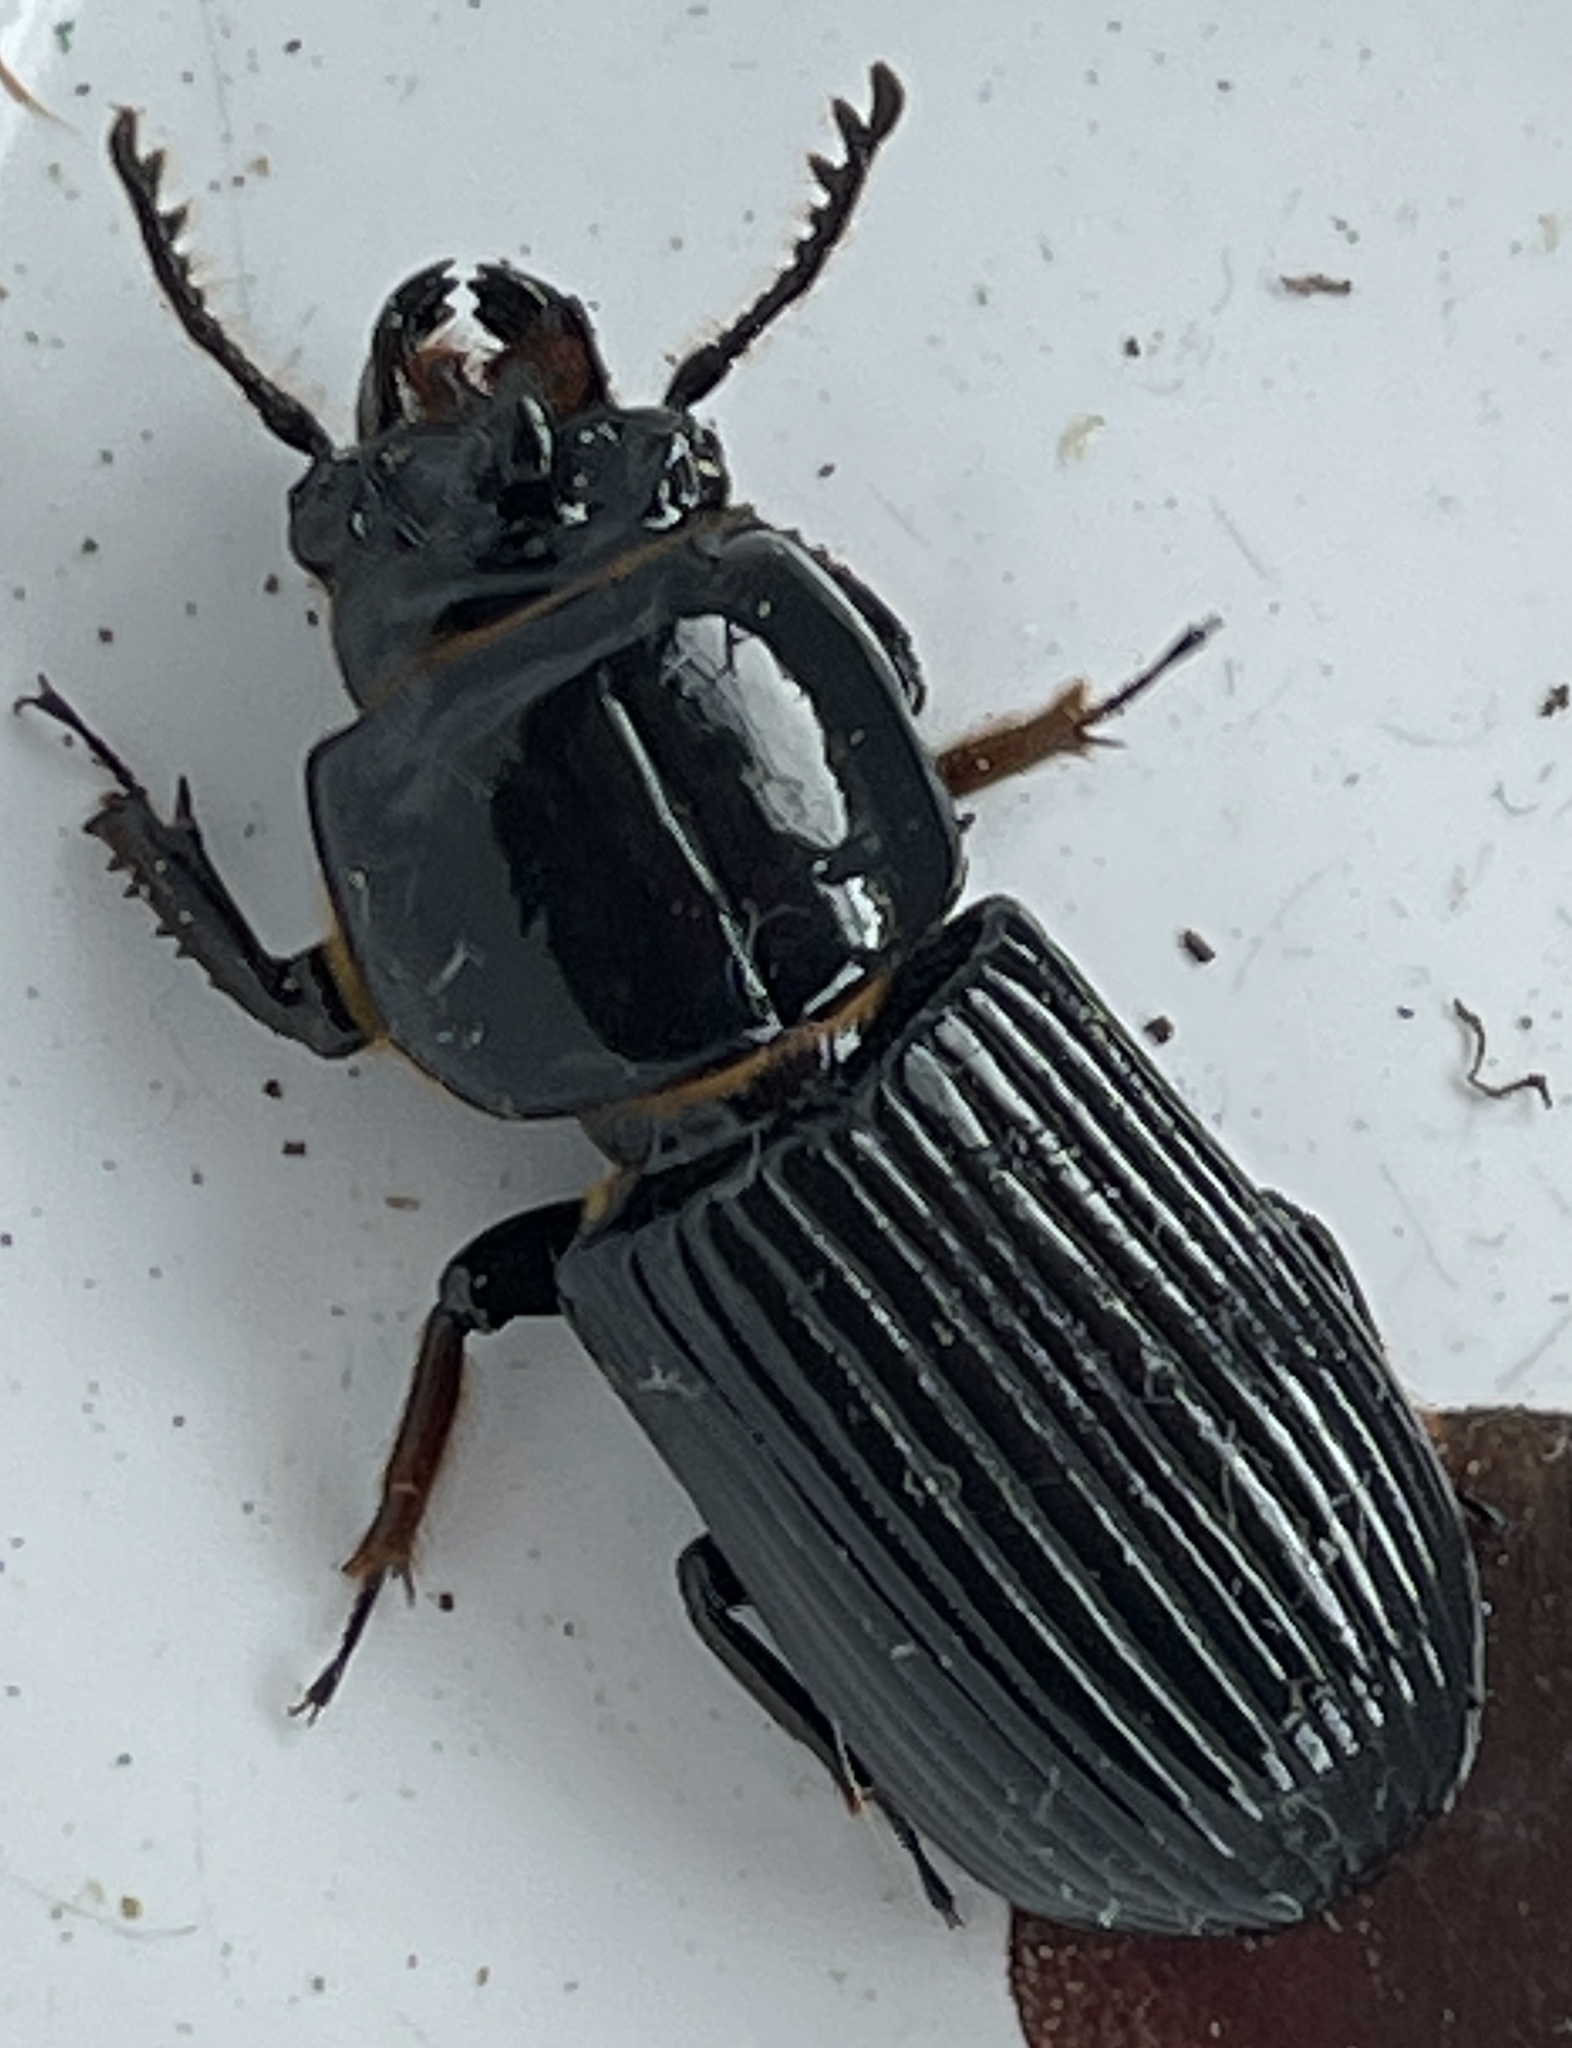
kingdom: Animalia
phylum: Arthropoda
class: Insecta
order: Coleoptera
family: Passalidae
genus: Odontotaenius
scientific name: Odontotaenius disjunctus
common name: Patent leather beetle
